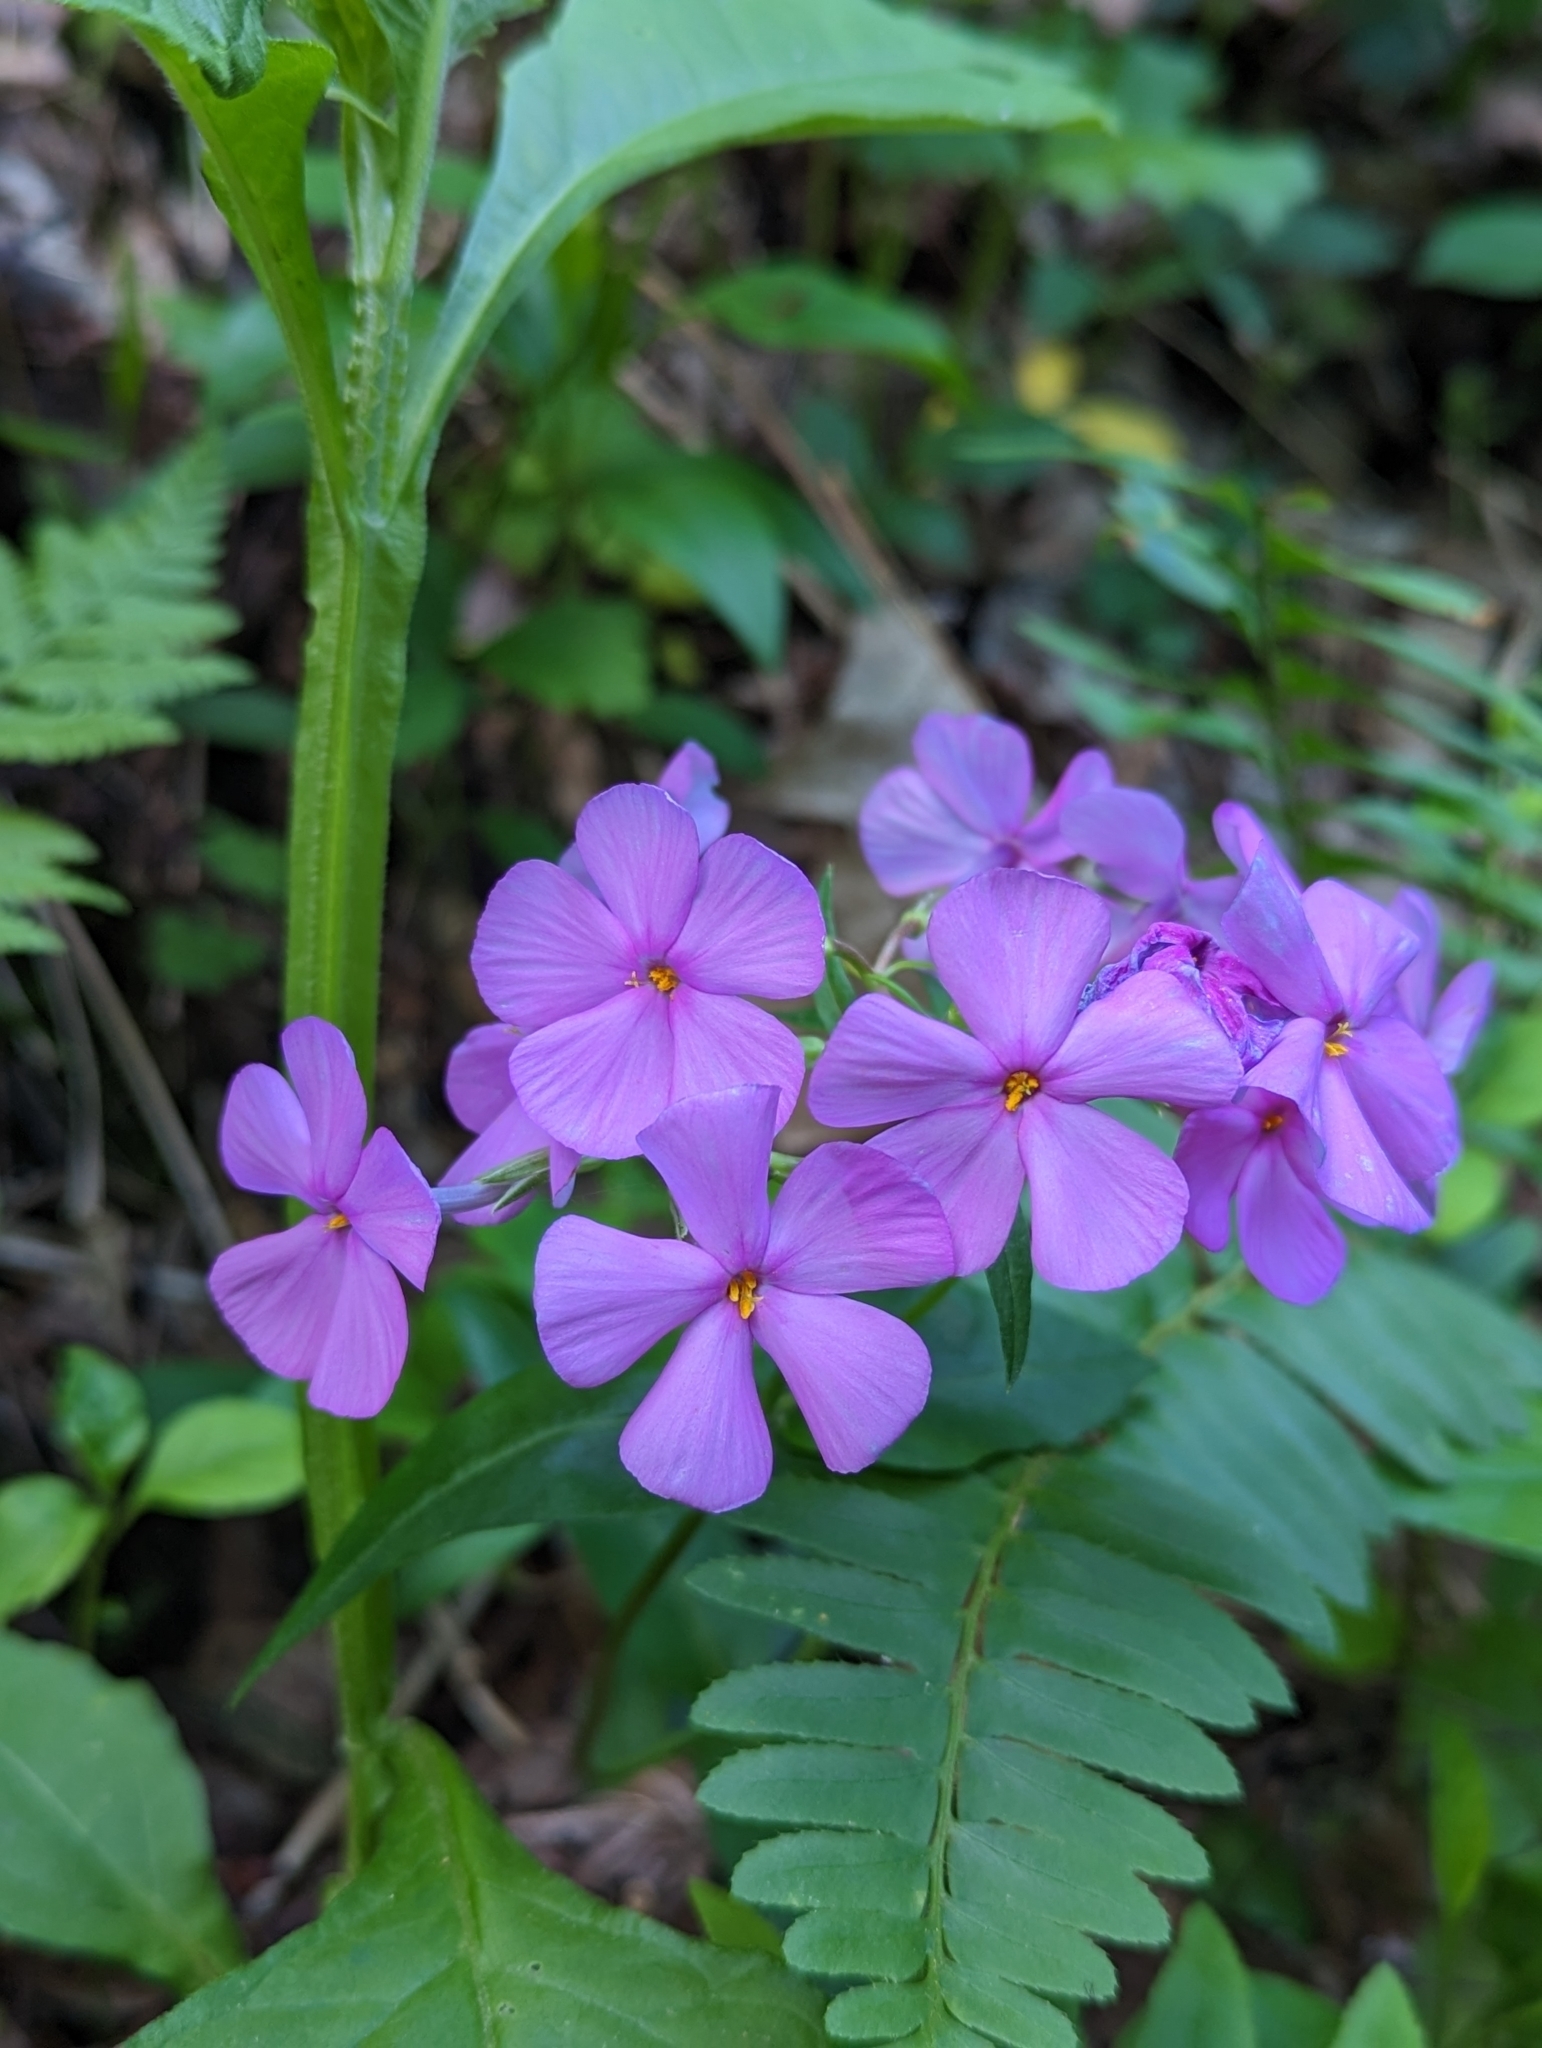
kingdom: Plantae
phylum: Tracheophyta
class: Magnoliopsida
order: Ericales
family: Polemoniaceae
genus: Phlox
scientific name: Phlox ovata
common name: Mountain phlox
